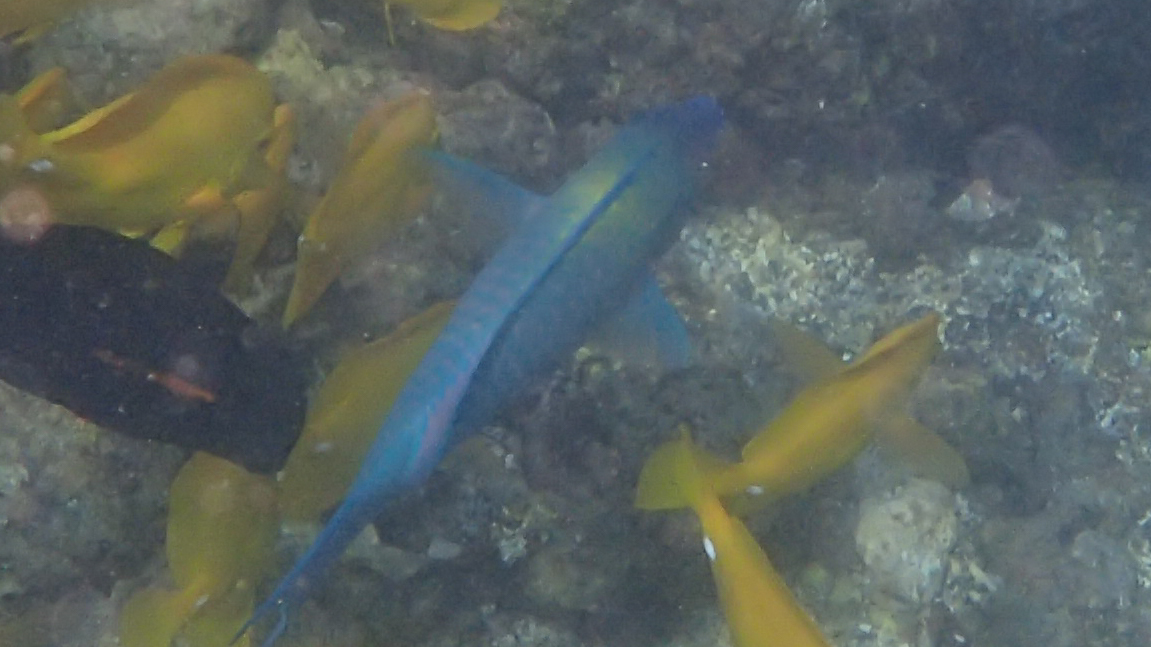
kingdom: Animalia
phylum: Chordata
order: Perciformes
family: Scaridae
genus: Scarus
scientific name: Scarus psittacus
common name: Palenose parrotfish
